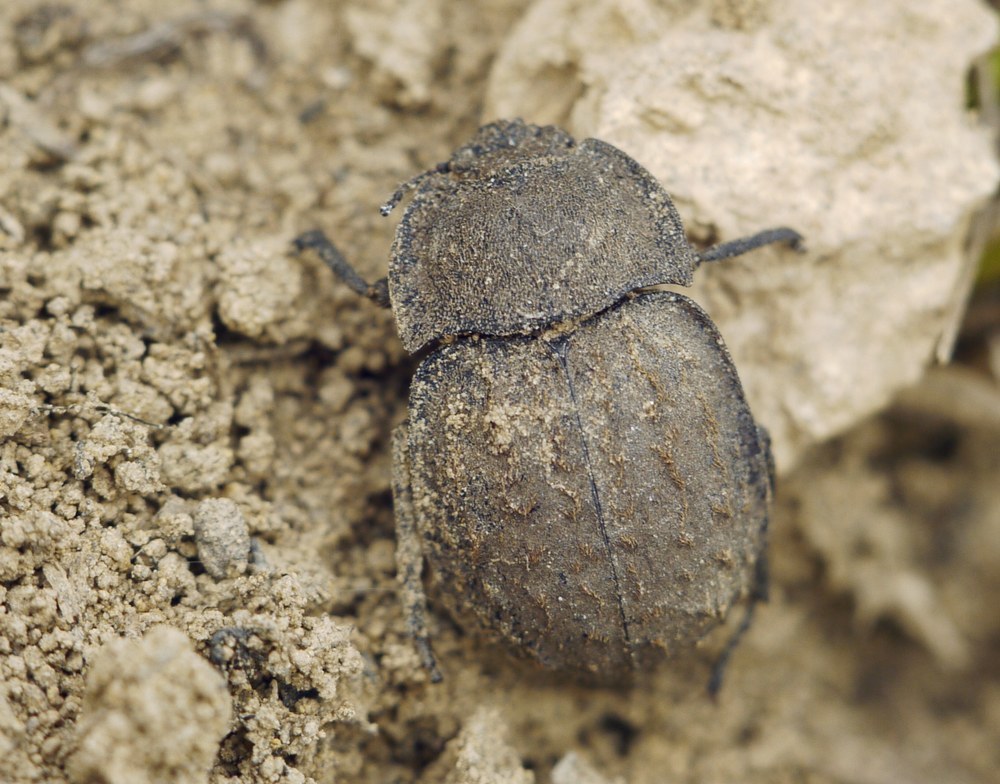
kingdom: Animalia
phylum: Arthropoda
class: Insecta
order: Coleoptera
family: Tenebrionidae
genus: Asida
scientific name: Asida lutosa
